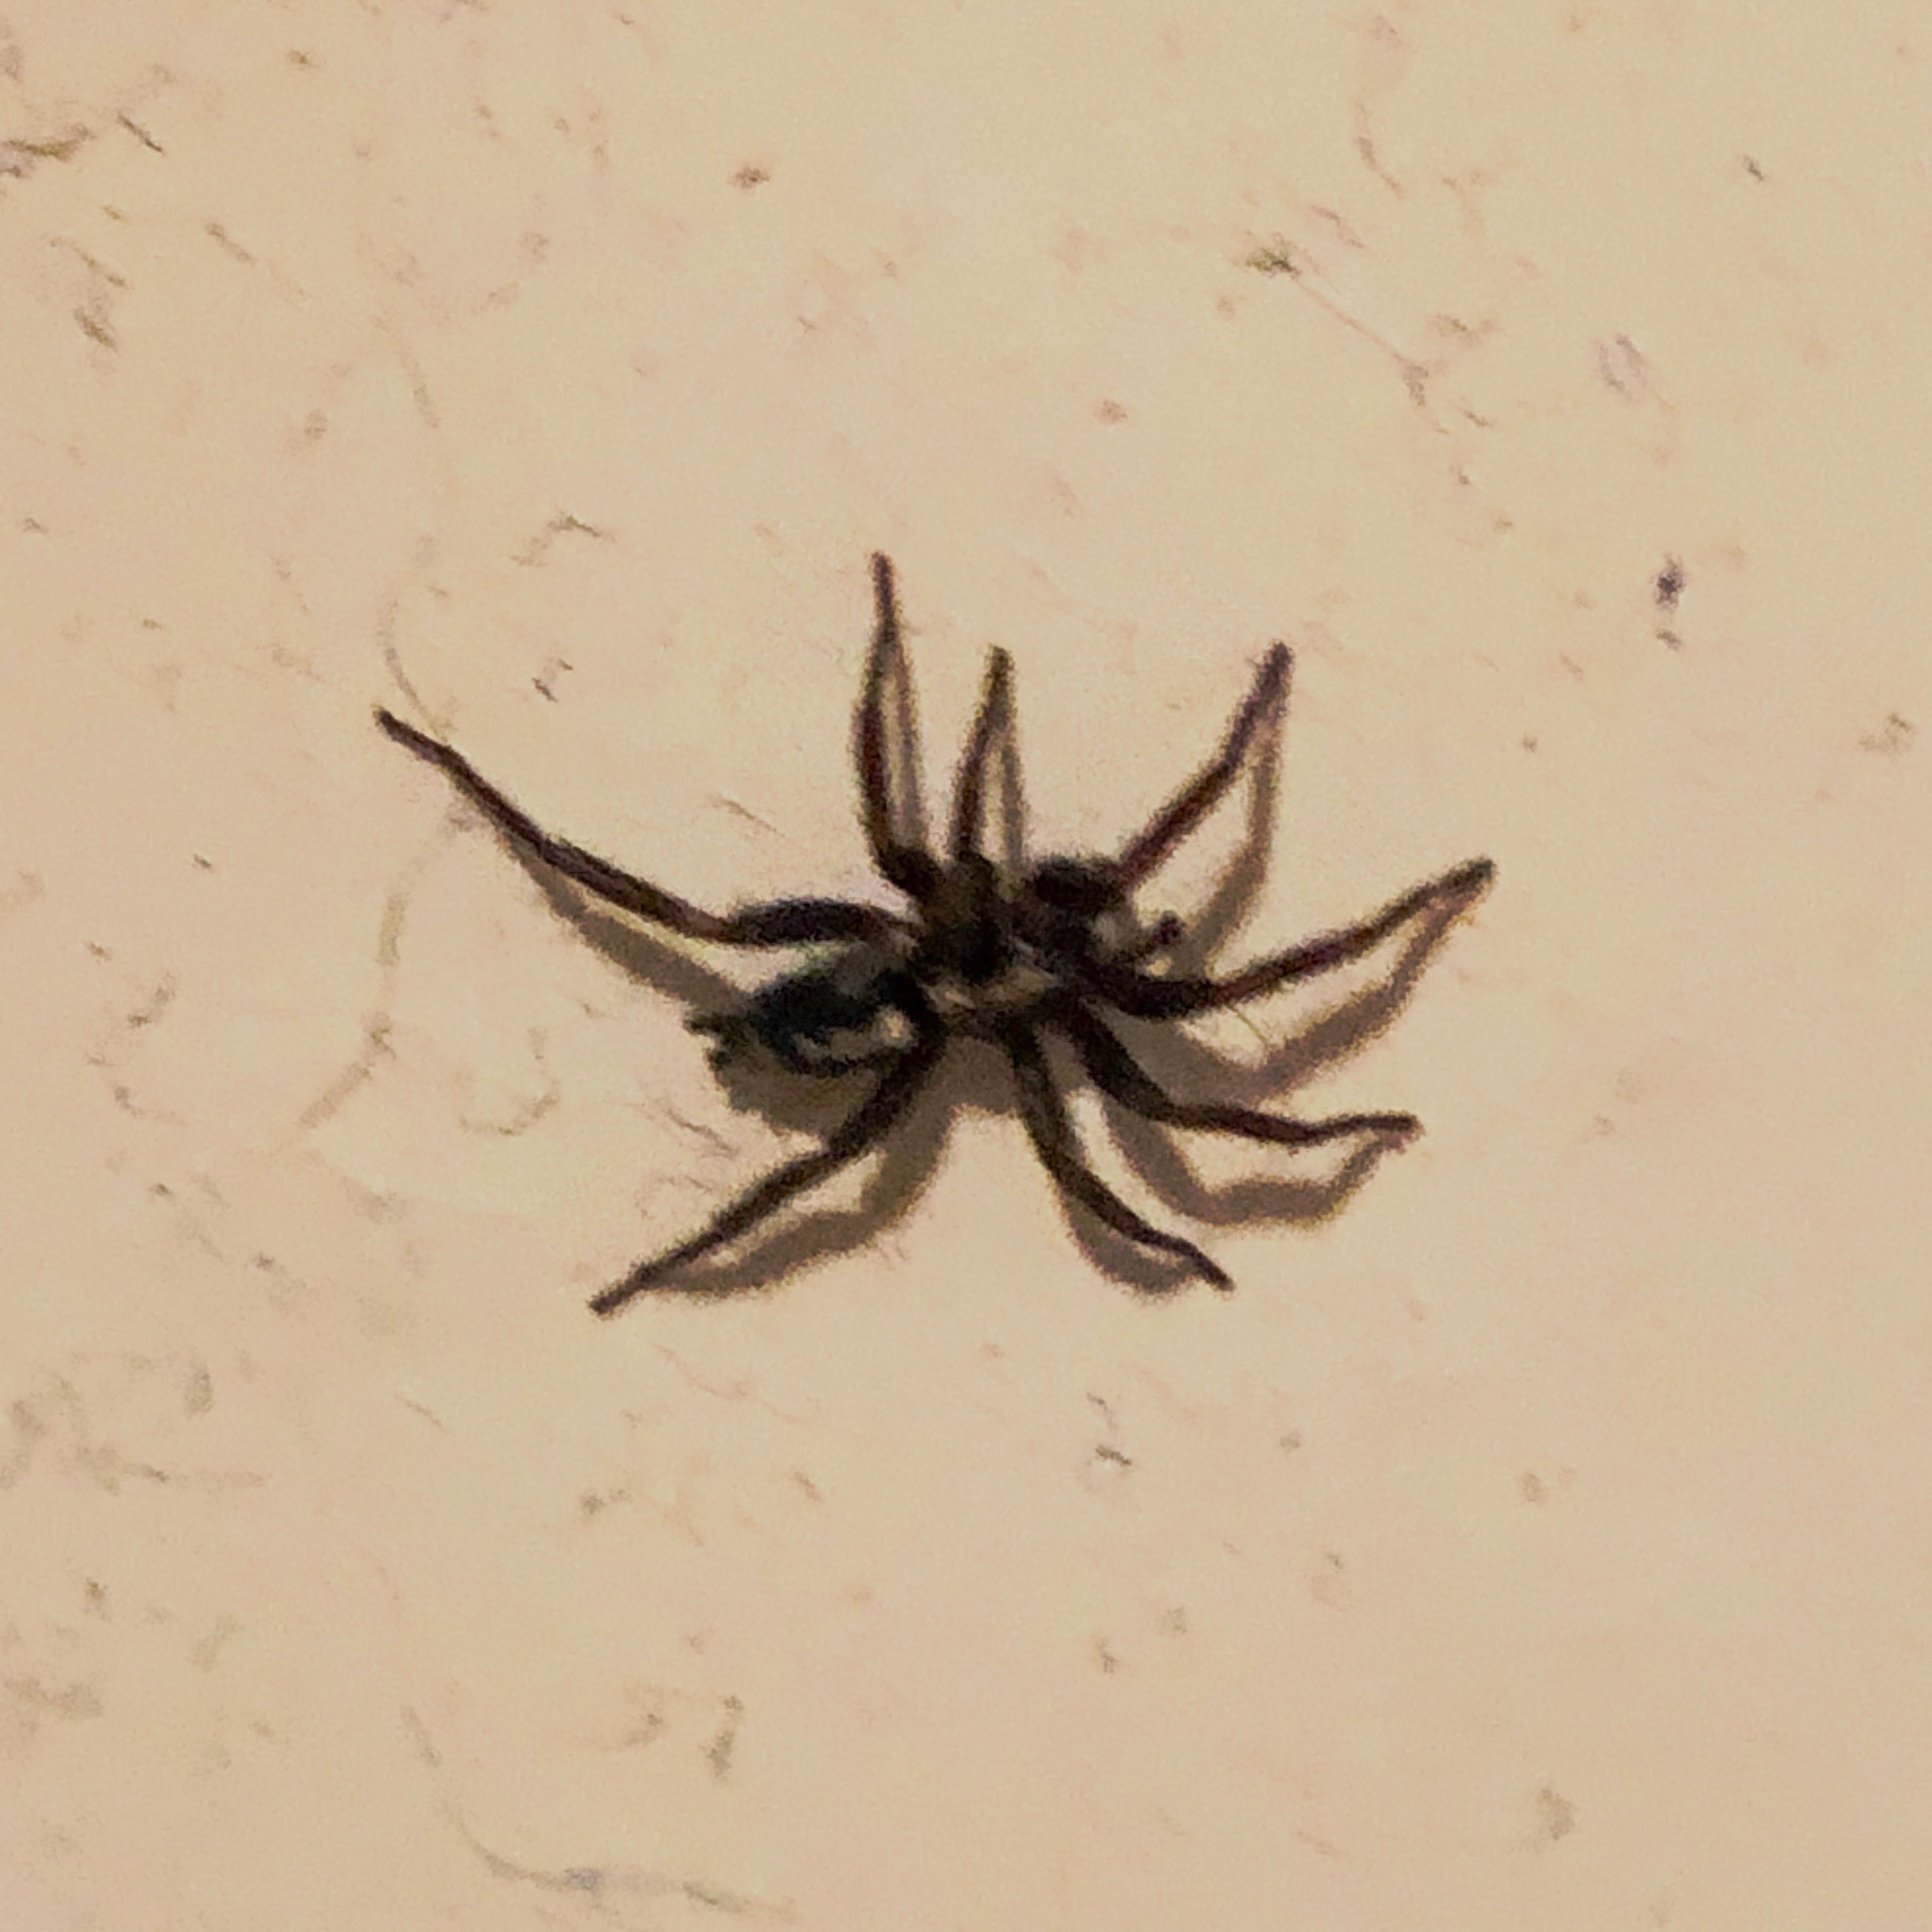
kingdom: Animalia
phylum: Arthropoda
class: Arachnida
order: Araneae
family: Gnaphosidae
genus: Herpyllus
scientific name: Herpyllus ecclesiasticus
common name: Eastern parson spider
